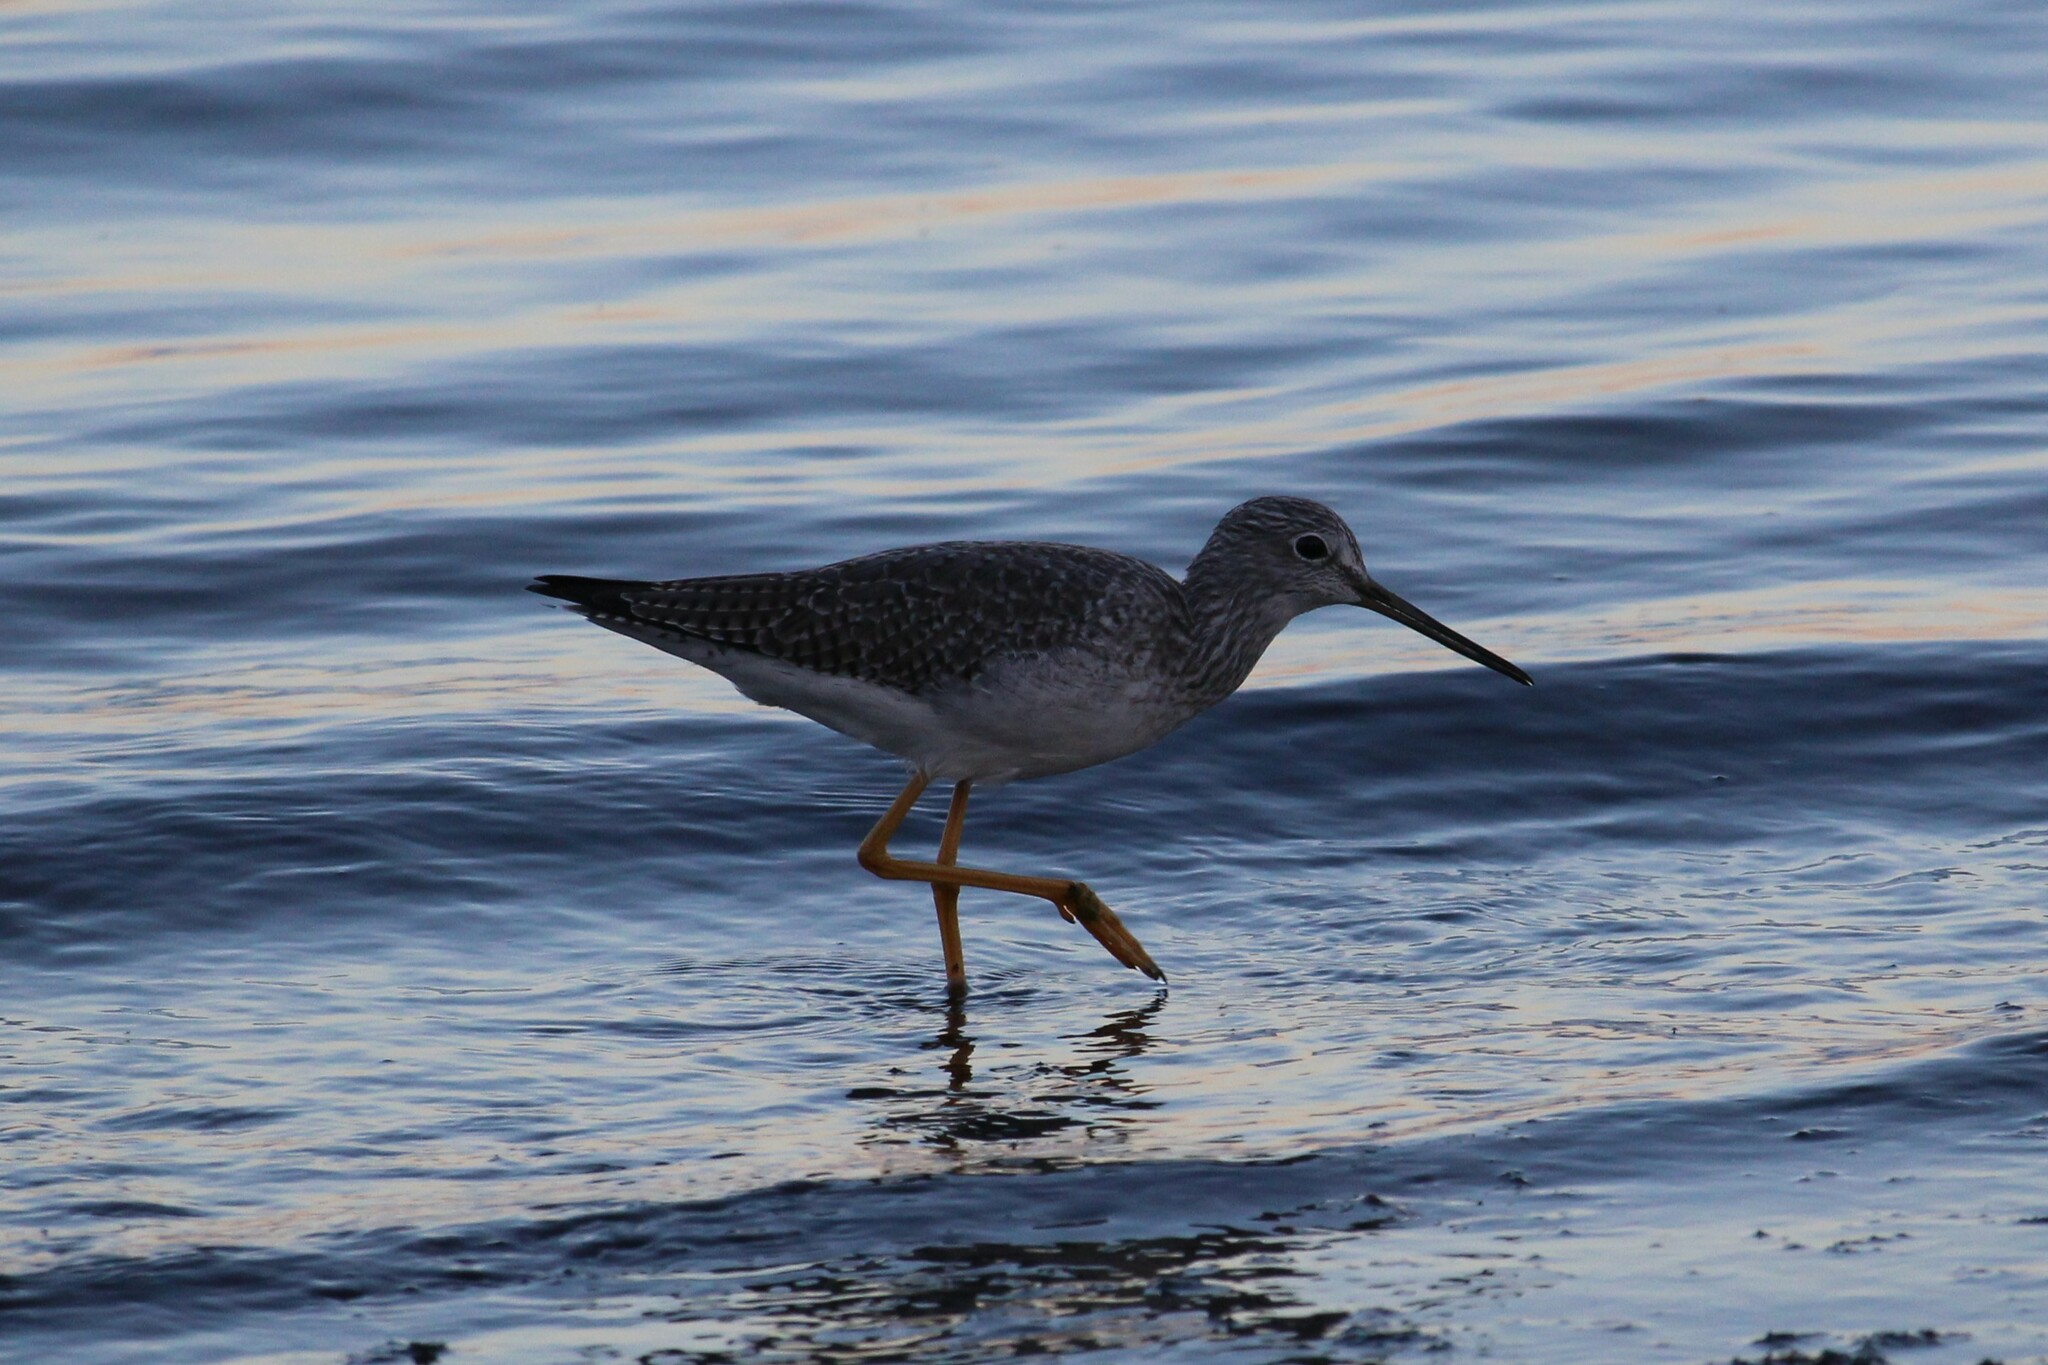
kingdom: Animalia
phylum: Chordata
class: Aves
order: Charadriiformes
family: Scolopacidae
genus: Tringa
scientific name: Tringa melanoleuca
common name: Greater yellowlegs
